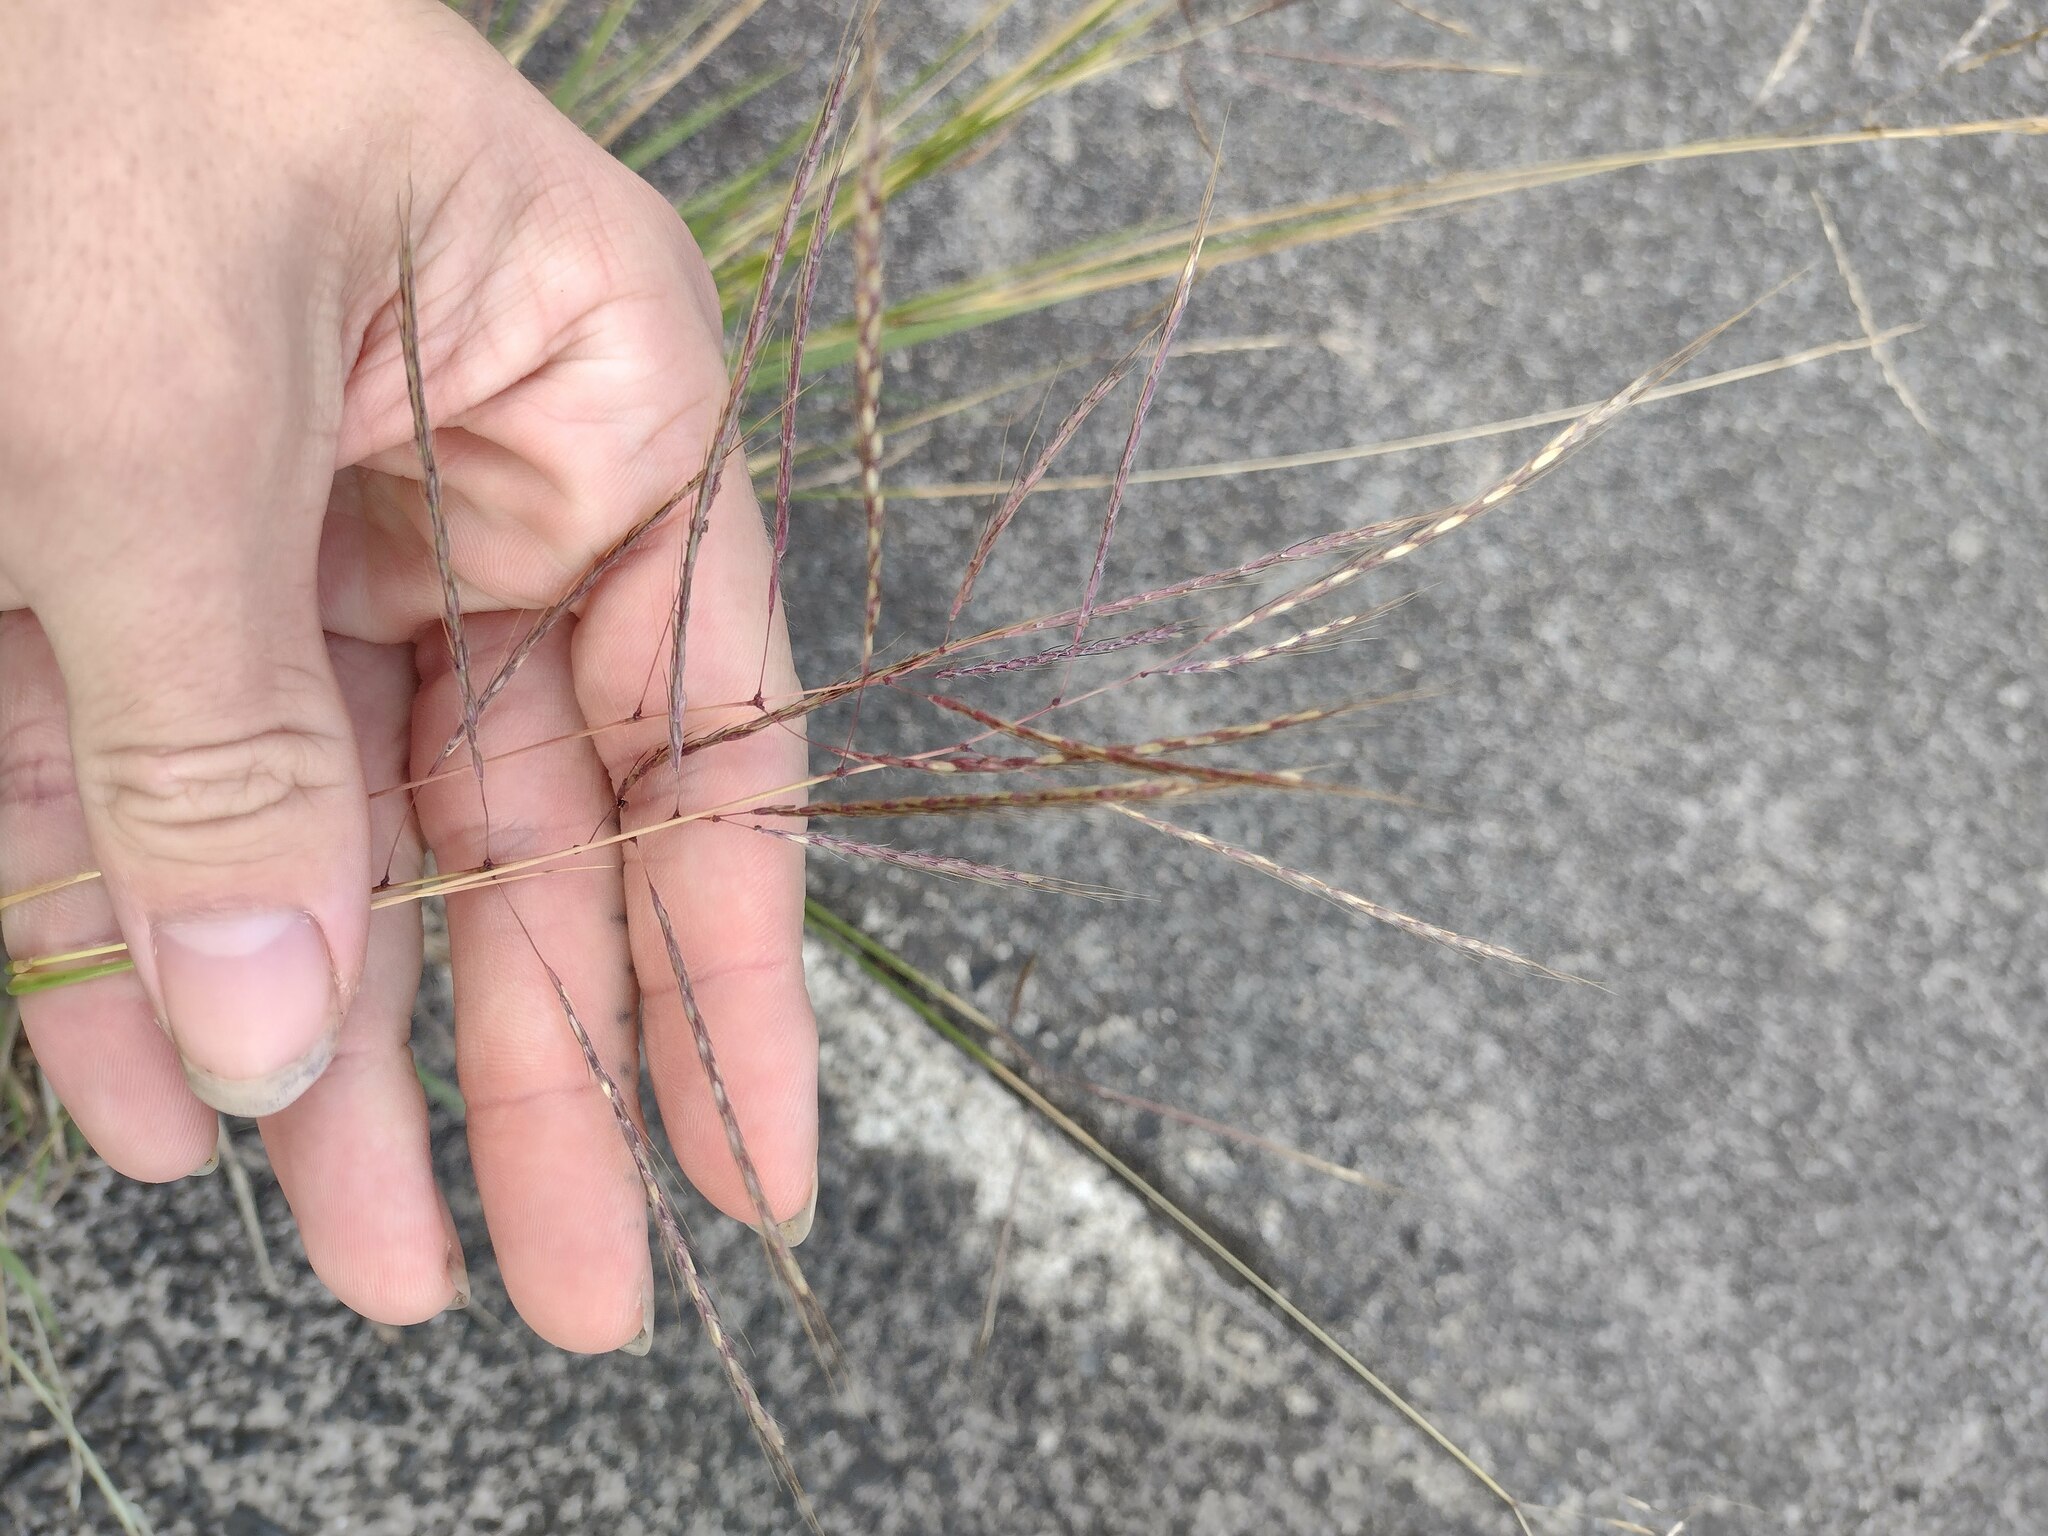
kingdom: Plantae
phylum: Tracheophyta
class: Liliopsida
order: Poales
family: Poaceae
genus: Dichanthium
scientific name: Dichanthium annulatum
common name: Kleberg's bluestem
